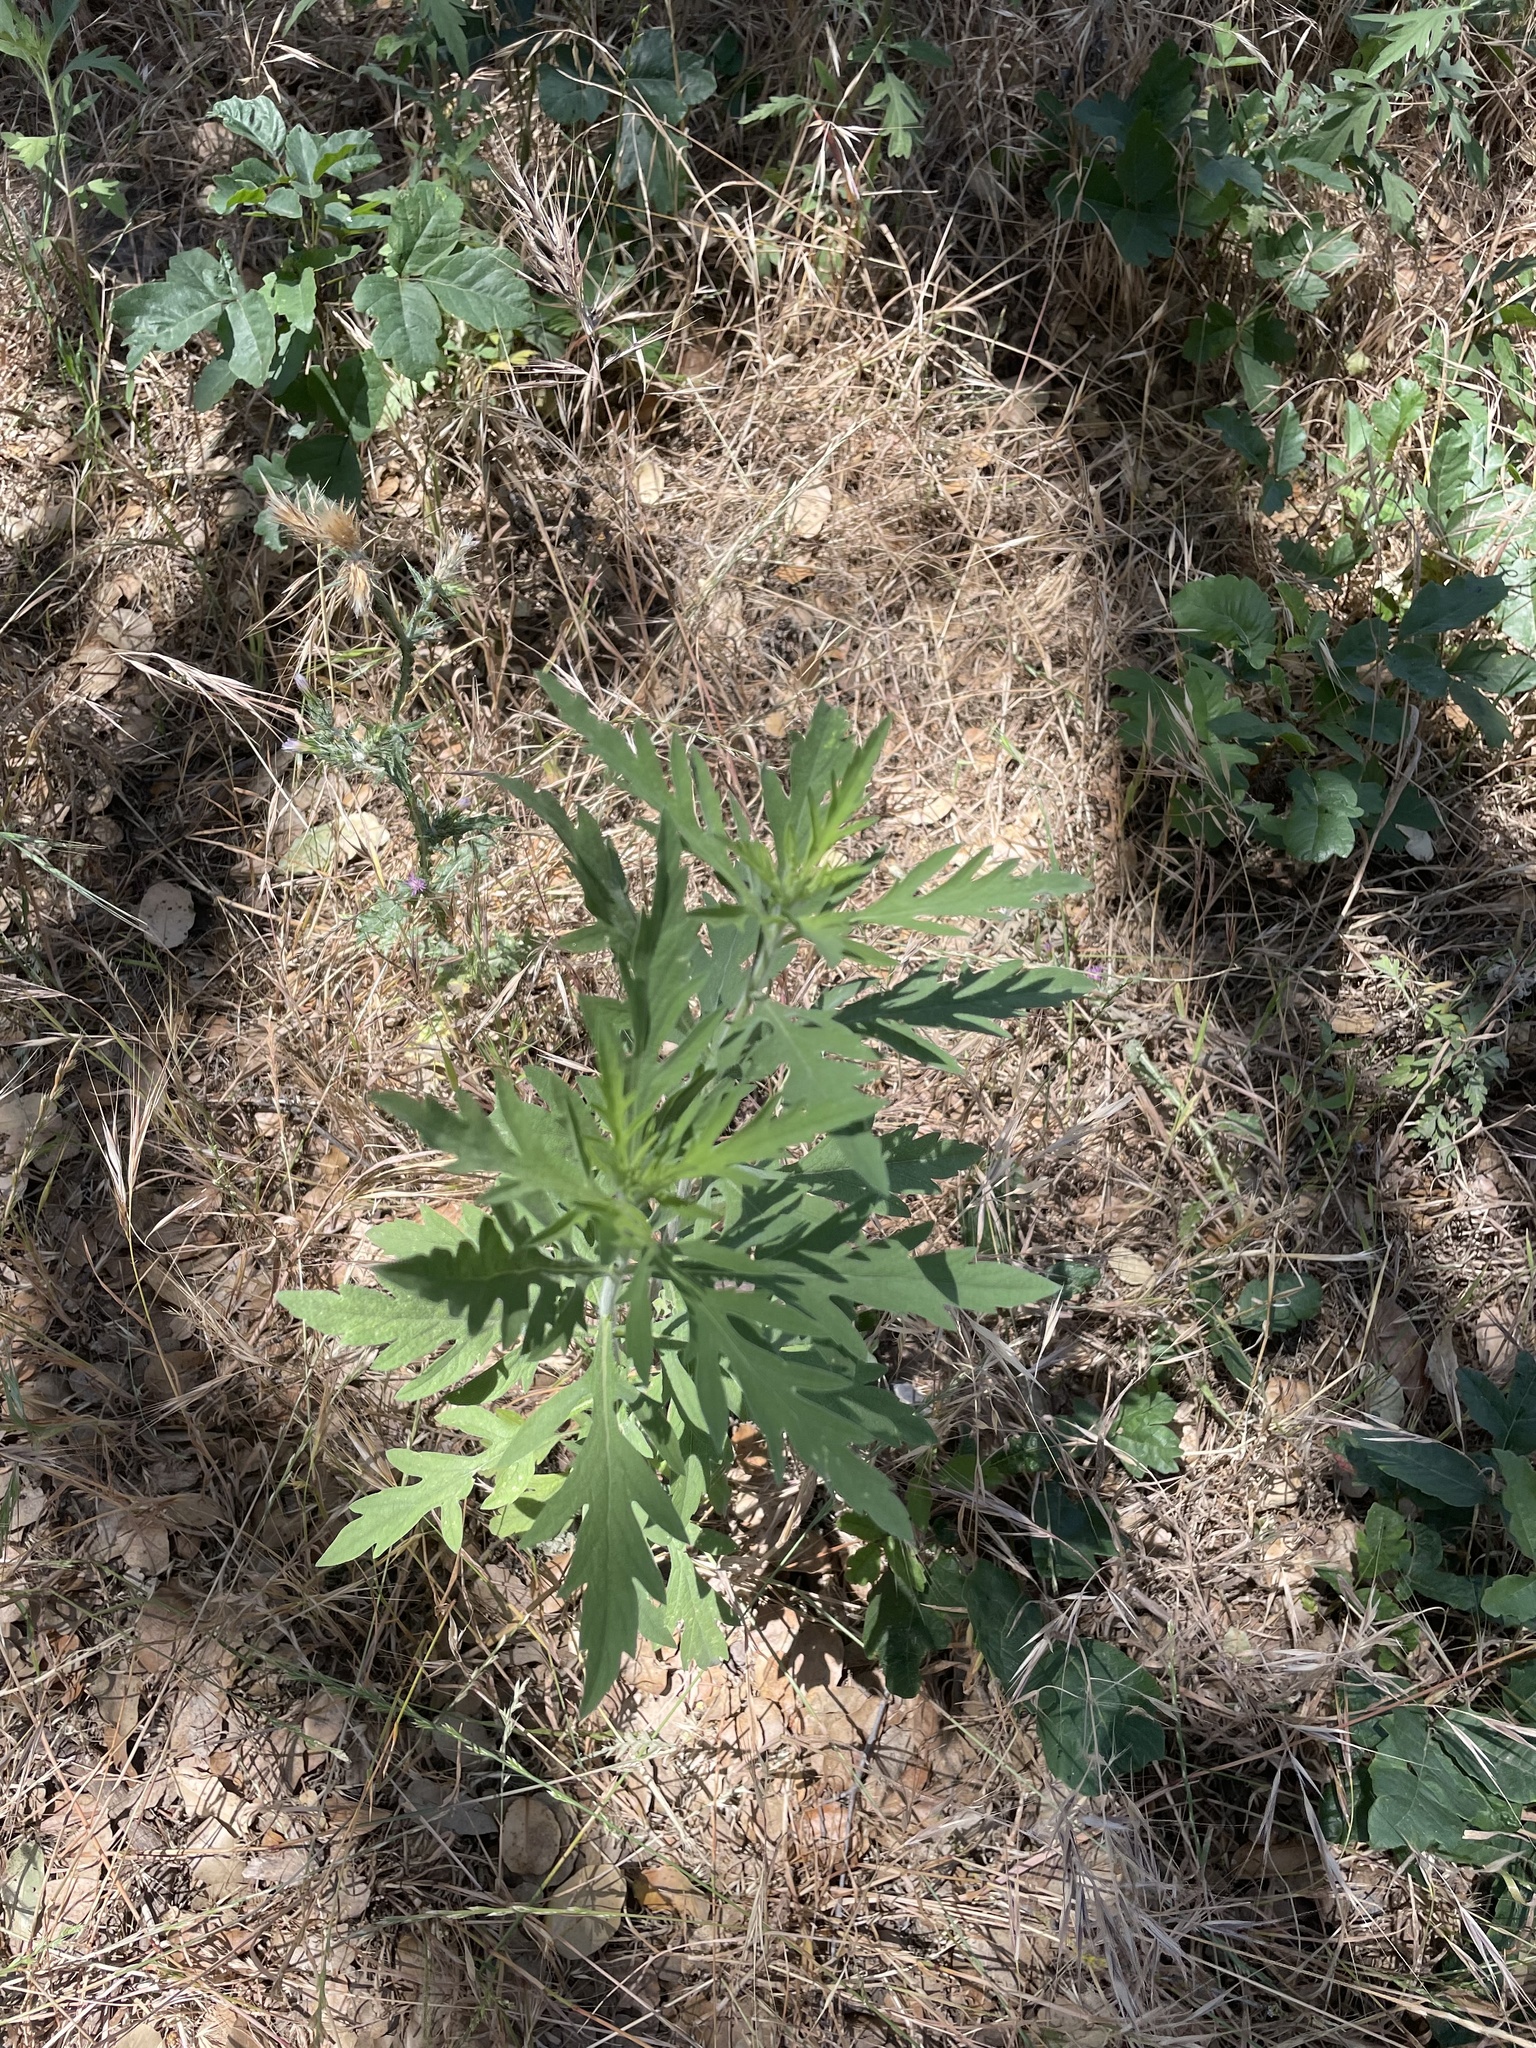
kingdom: Plantae
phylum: Tracheophyta
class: Magnoliopsida
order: Asterales
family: Asteraceae
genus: Ambrosia
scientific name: Ambrosia psilostachya
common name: Perennial ragweed
